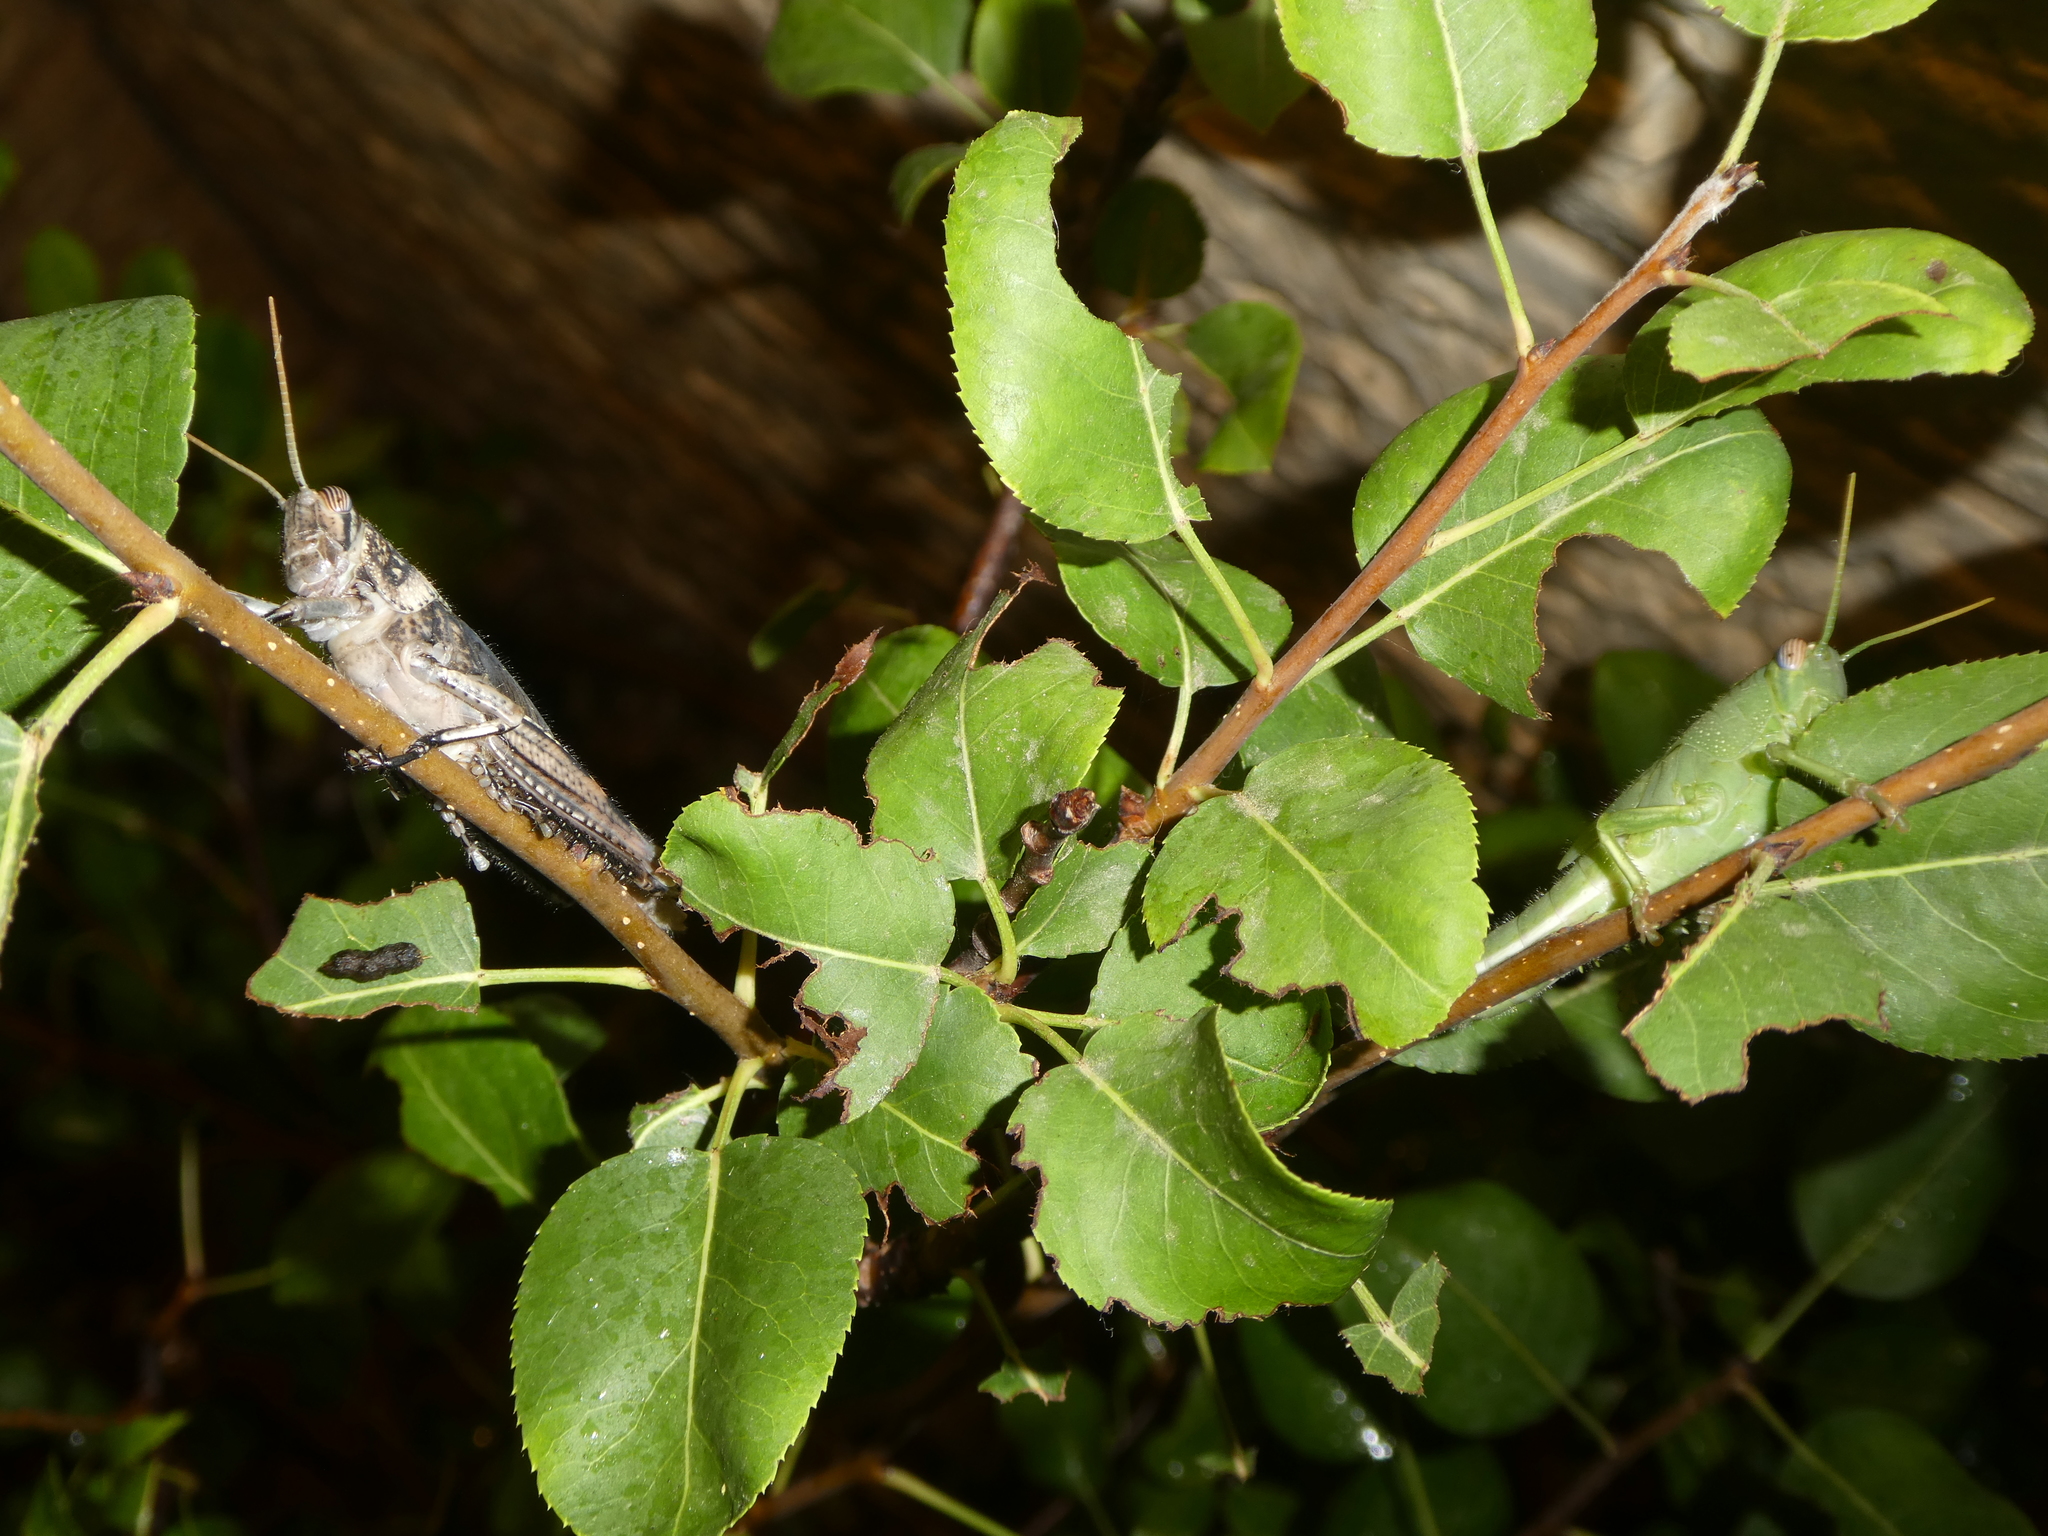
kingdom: Animalia
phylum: Arthropoda
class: Insecta
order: Orthoptera
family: Acrididae
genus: Anacridium
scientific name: Anacridium aegyptium
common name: Egyptian grasshopper
